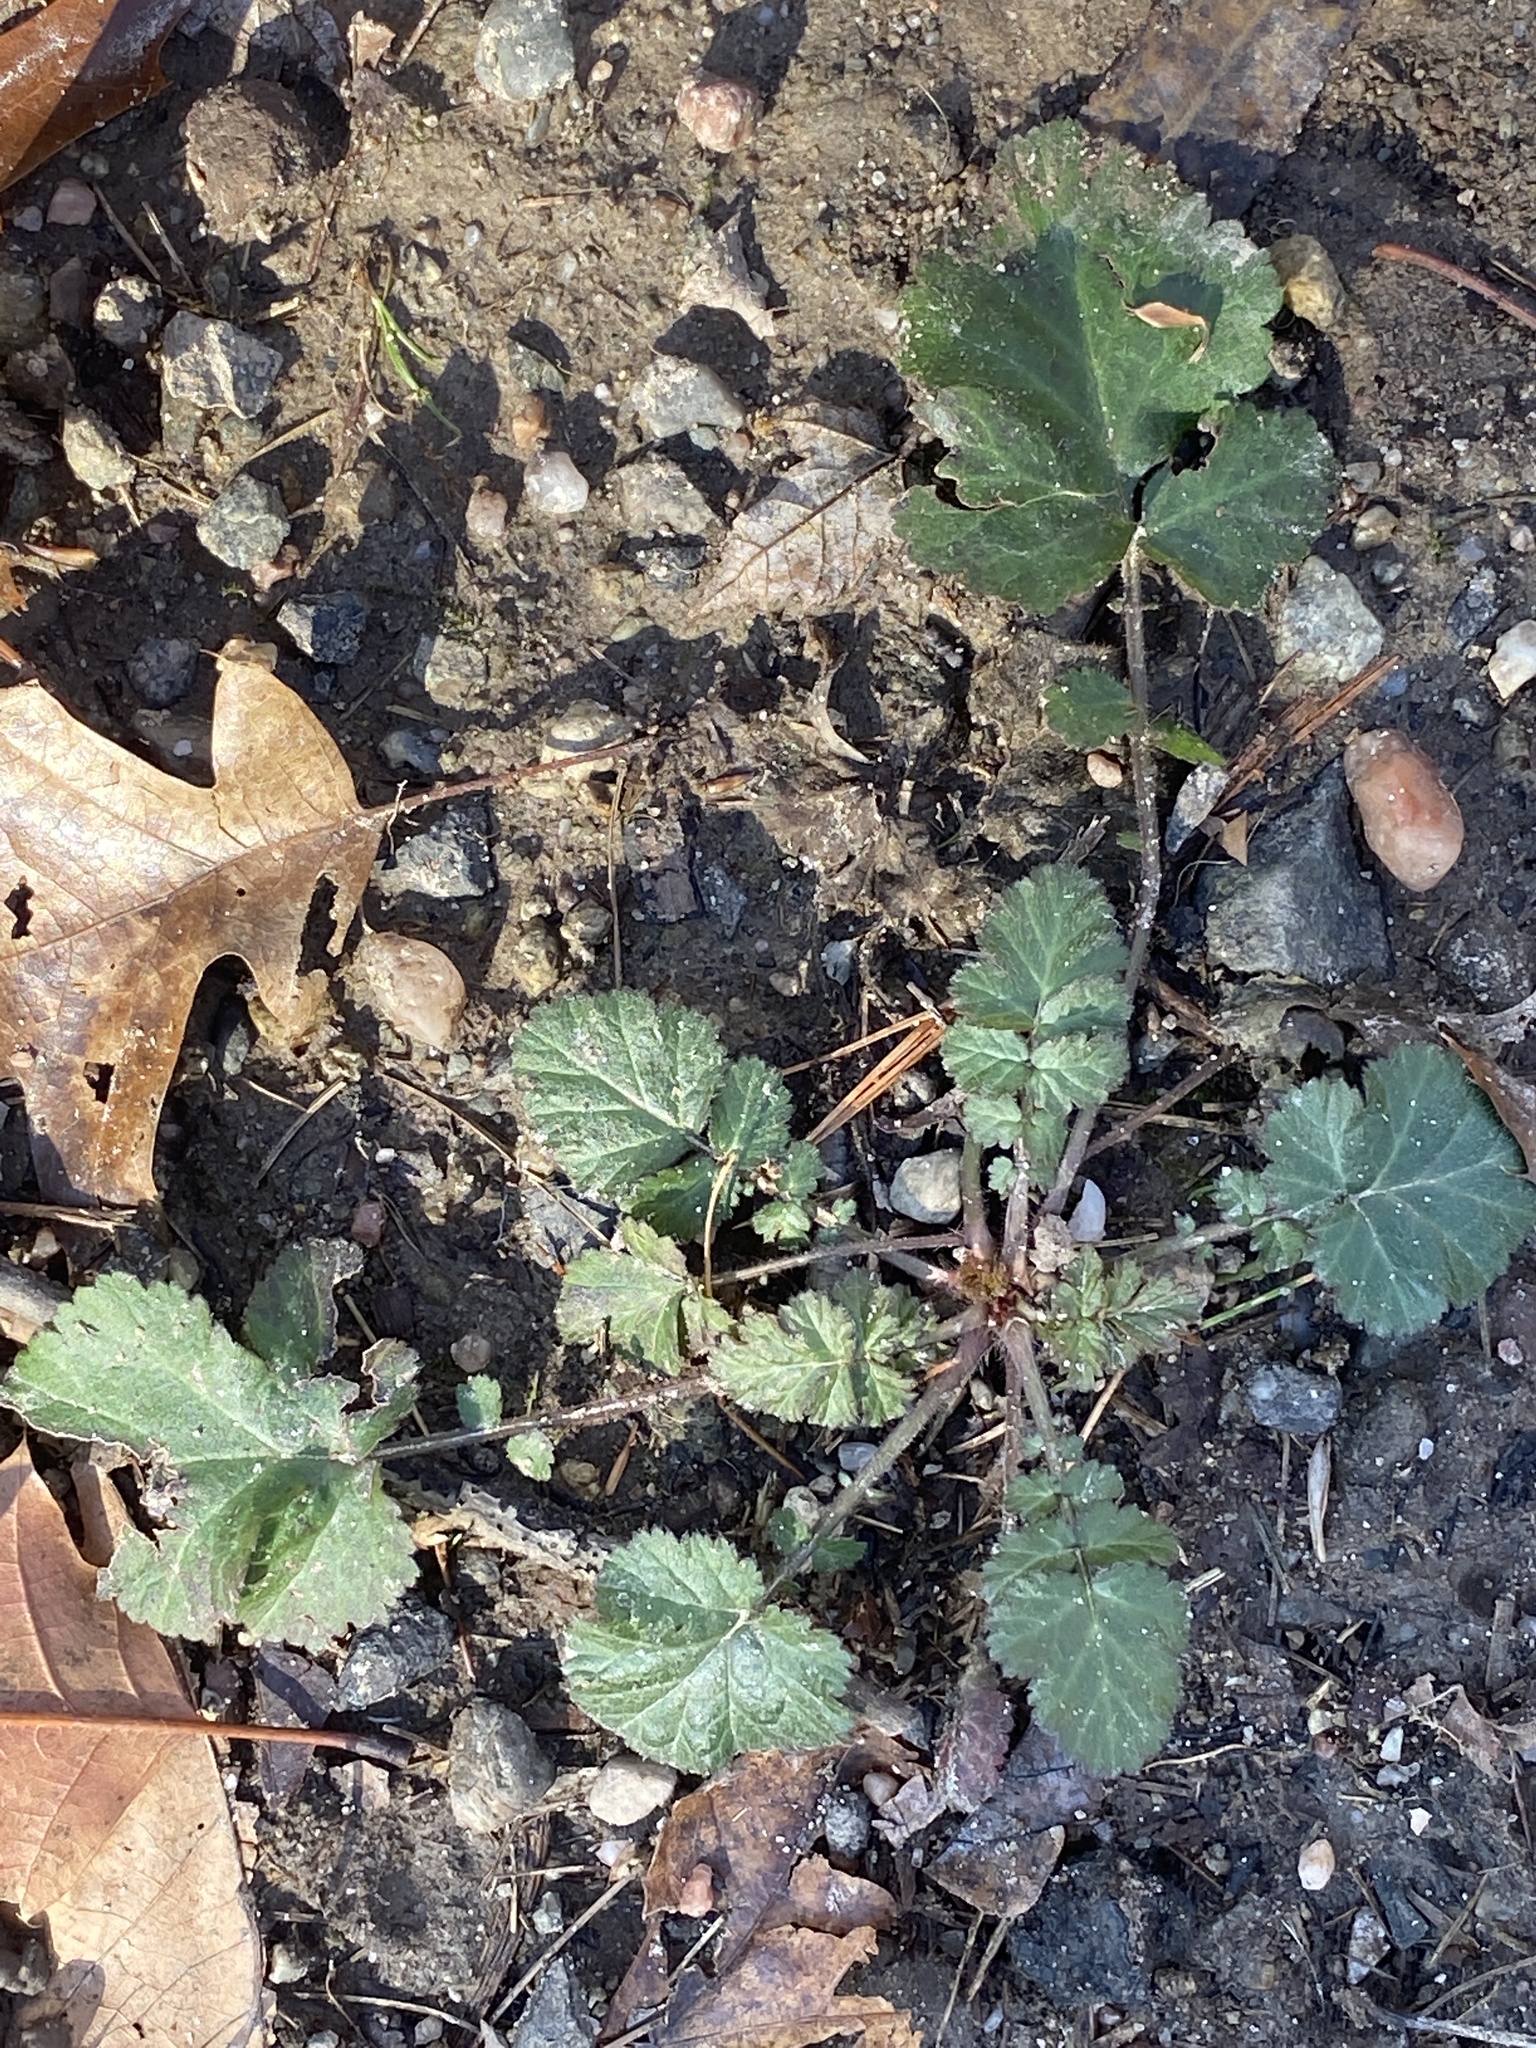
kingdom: Plantae
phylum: Tracheophyta
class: Magnoliopsida
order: Rosales
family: Rosaceae
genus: Geum
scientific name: Geum canadense
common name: White avens
